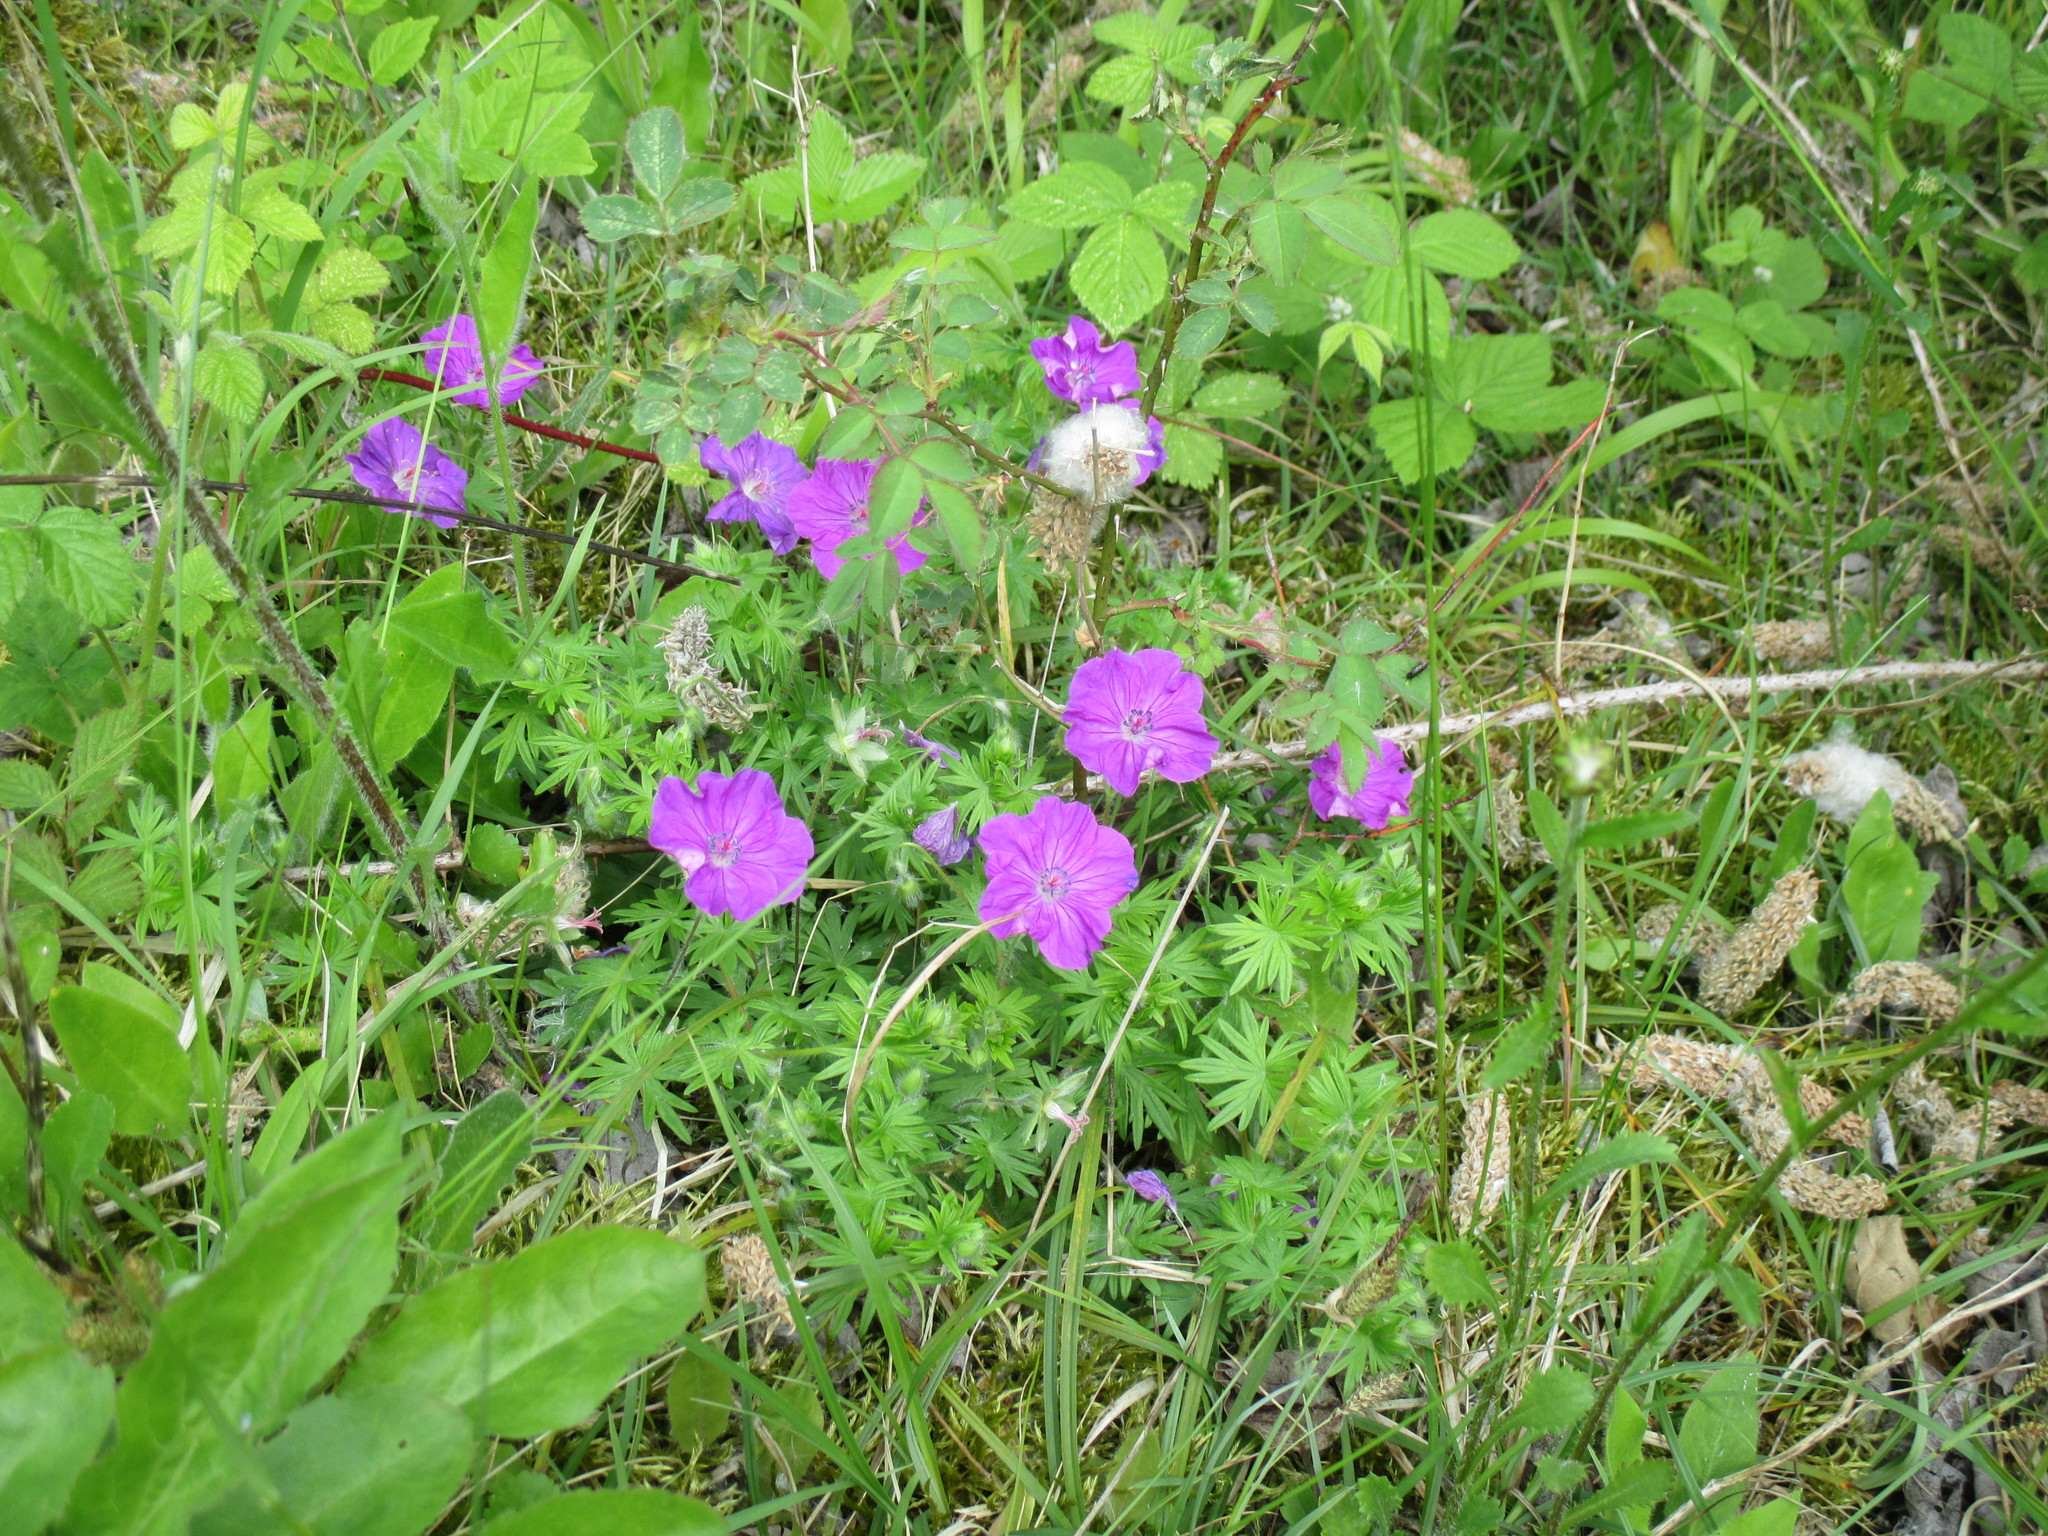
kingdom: Plantae
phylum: Tracheophyta
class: Magnoliopsida
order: Geraniales
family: Geraniaceae
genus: Geranium
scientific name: Geranium sanguineum
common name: Bloody crane's-bill
